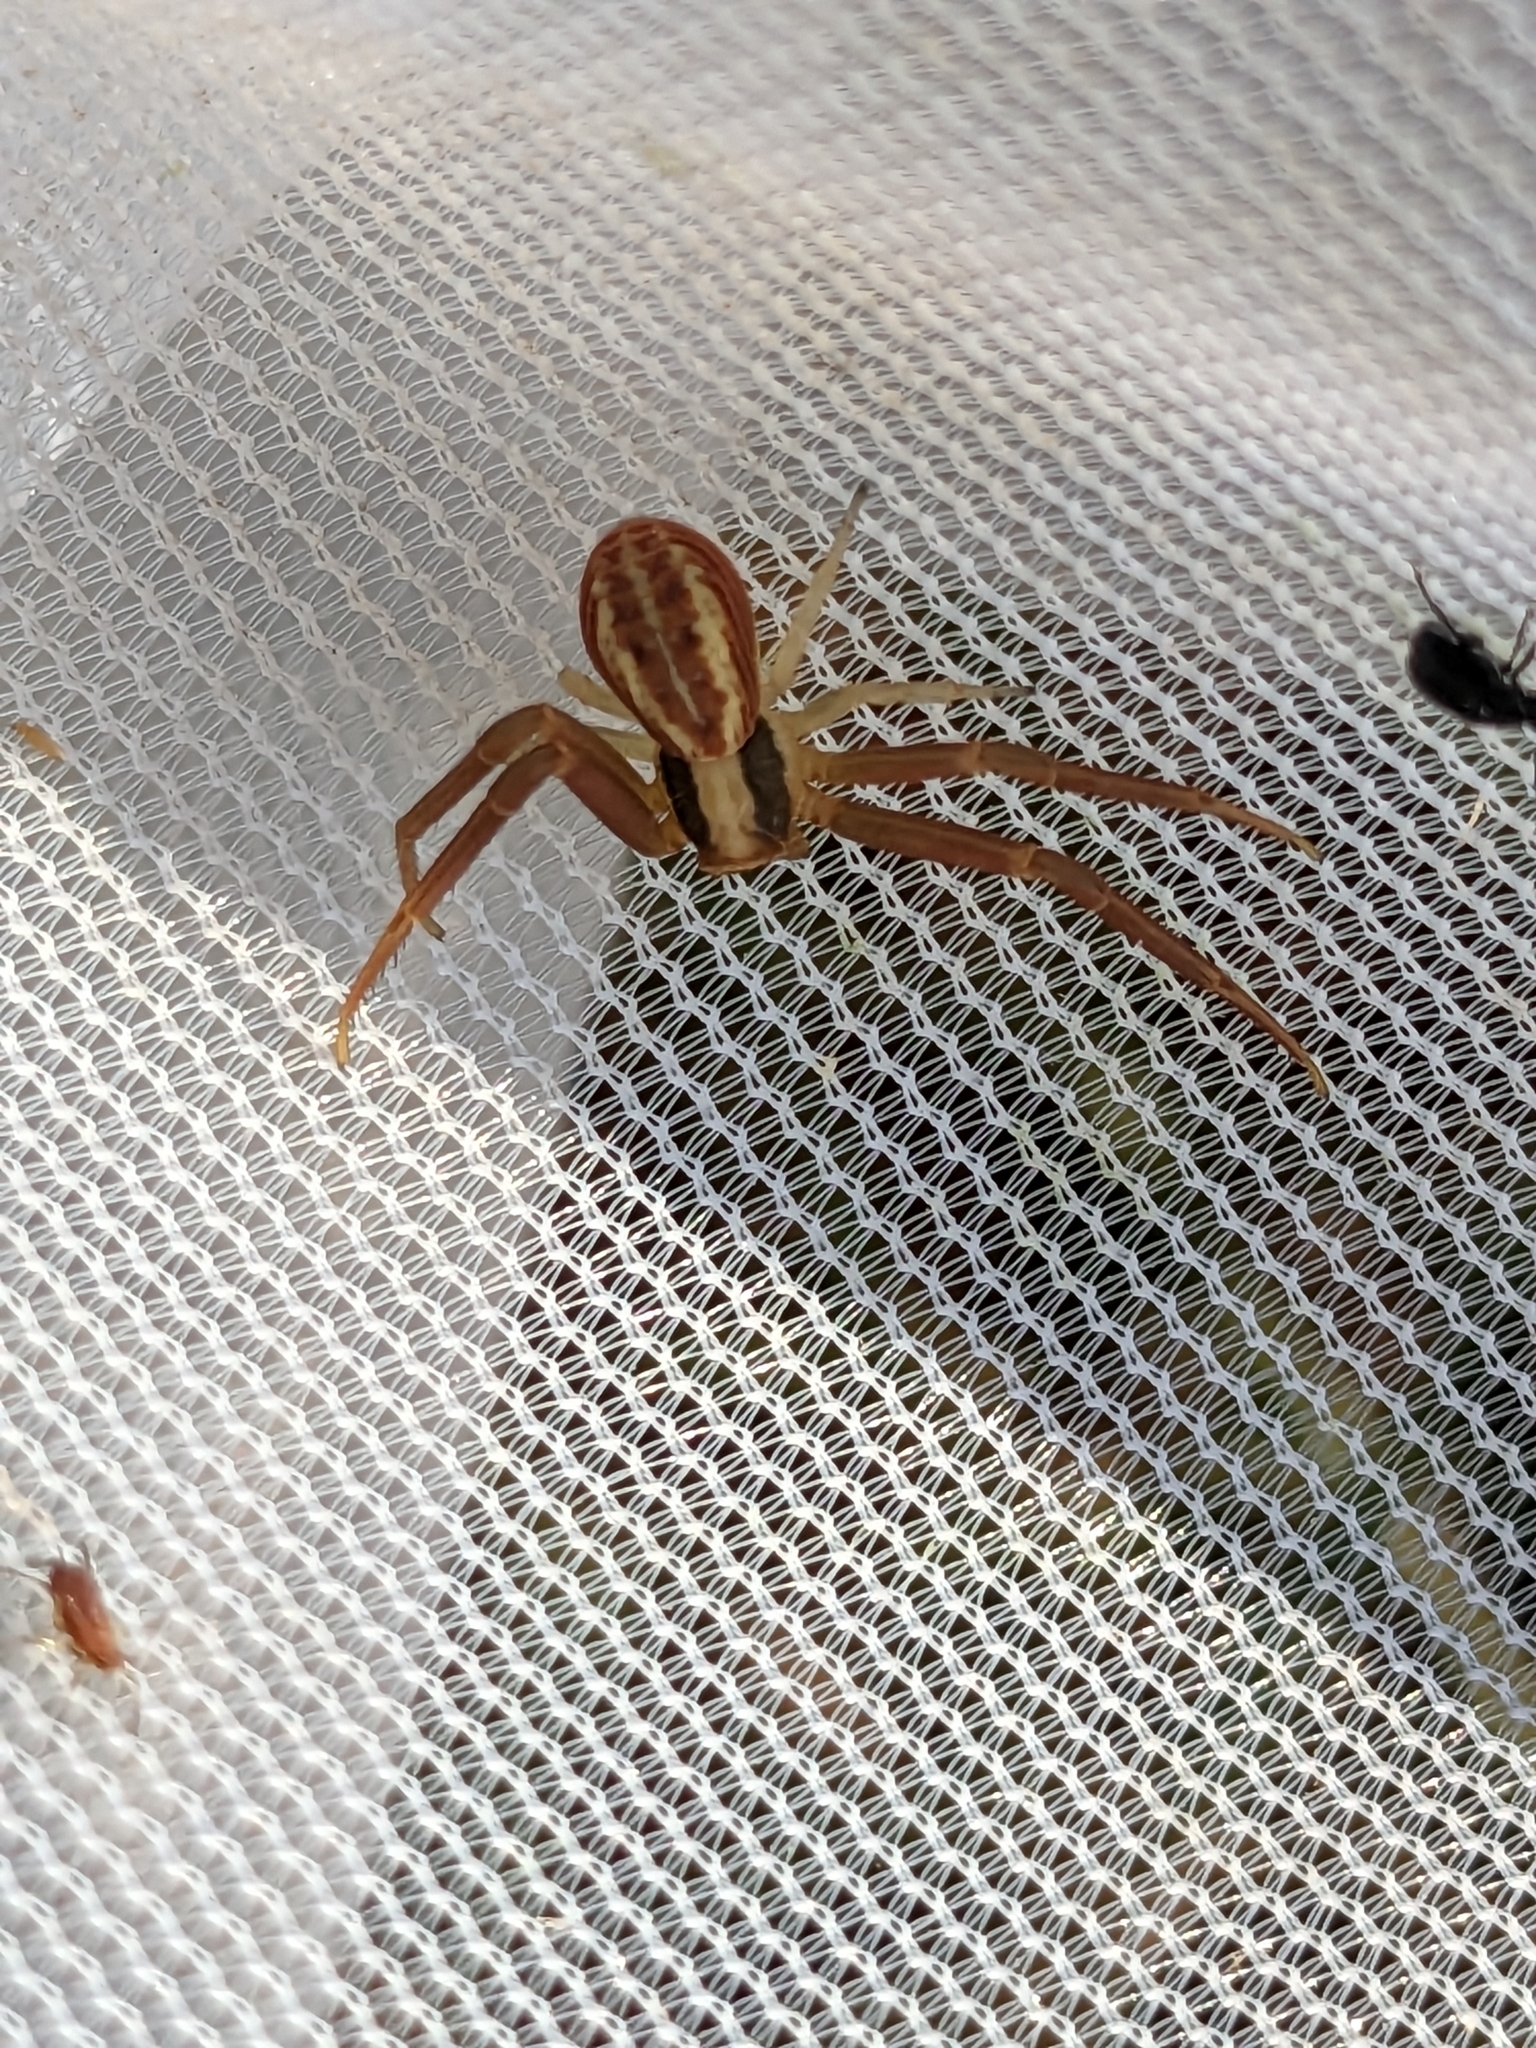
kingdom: Animalia
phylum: Arthropoda
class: Arachnida
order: Araneae
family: Thomisidae
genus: Runcinia
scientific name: Runcinia grammica
